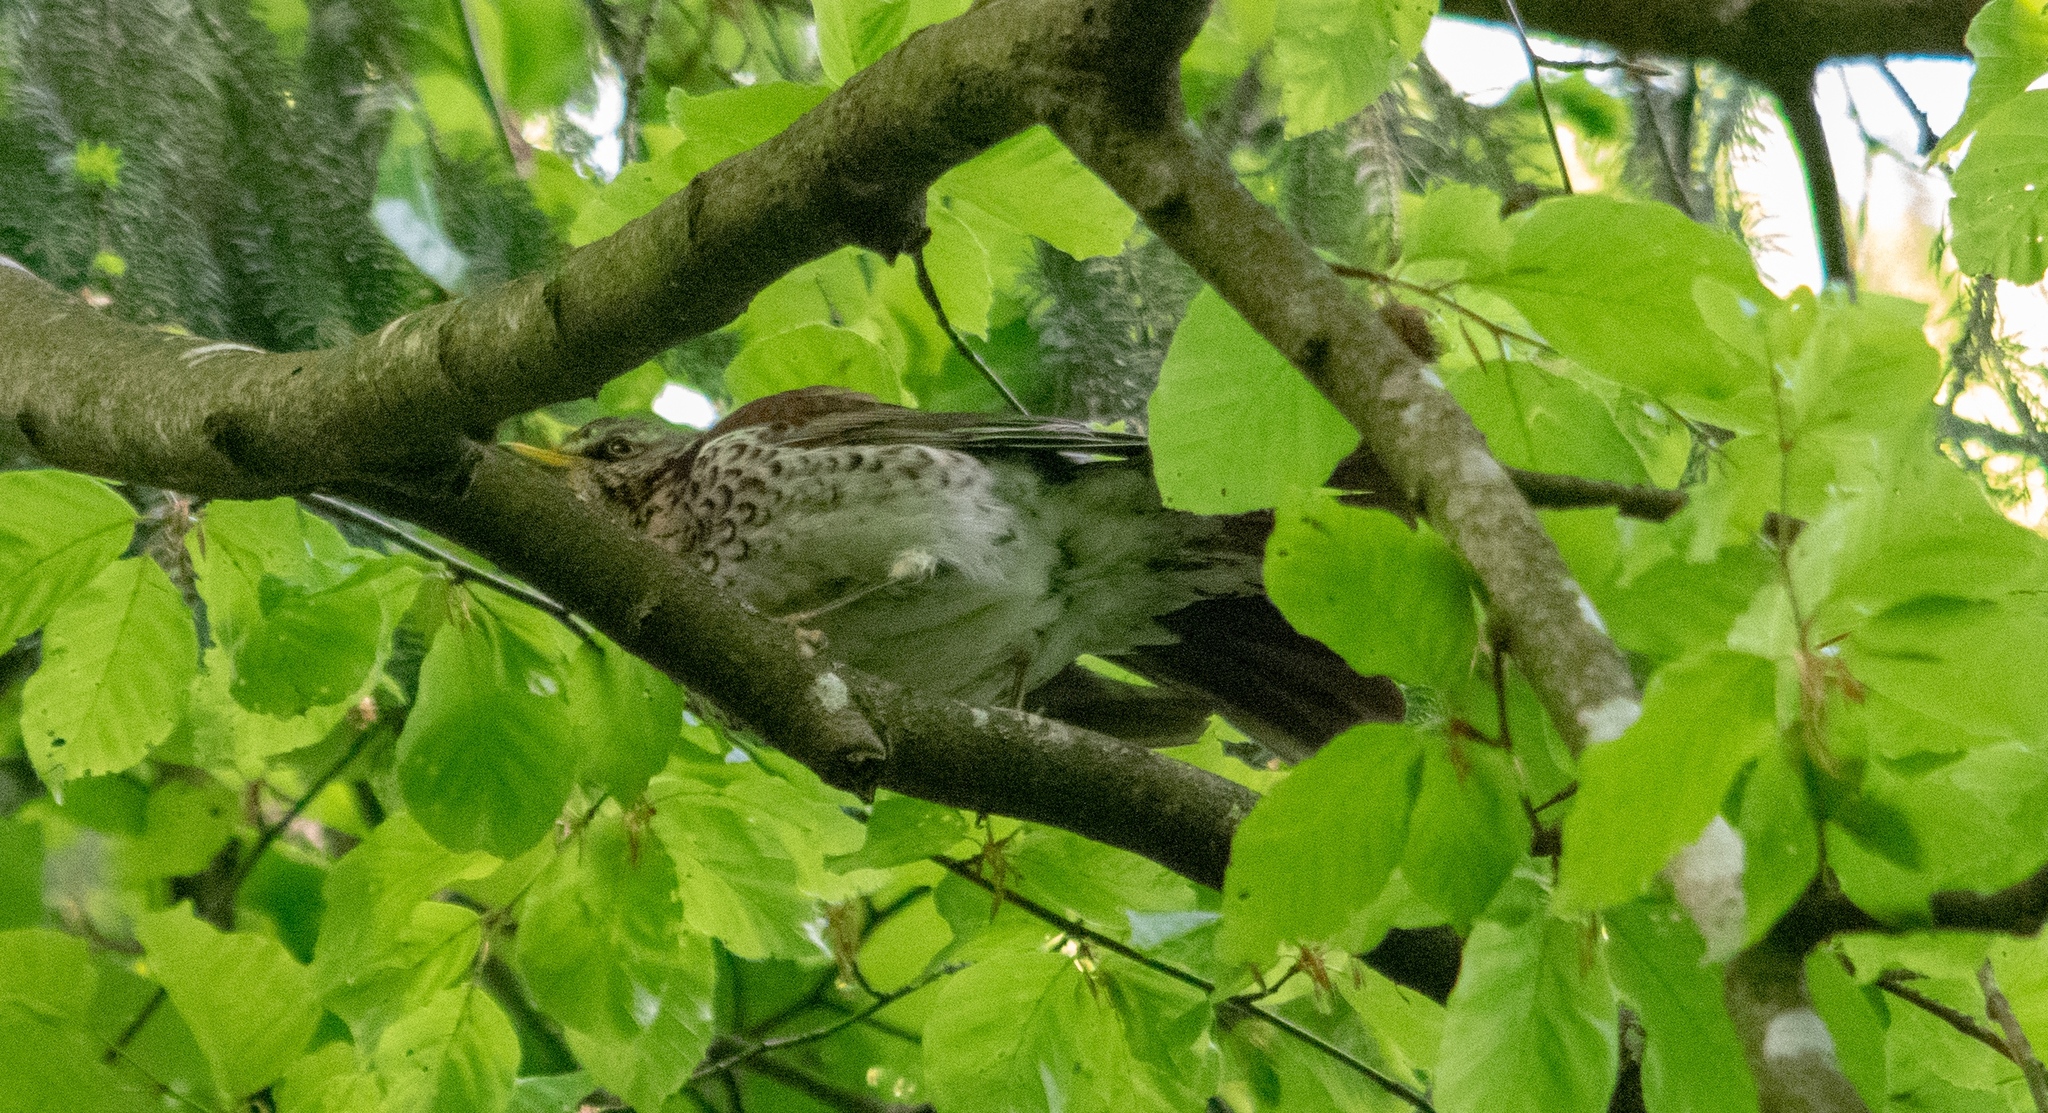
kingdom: Animalia
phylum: Chordata
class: Aves
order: Passeriformes
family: Turdidae
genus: Turdus
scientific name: Turdus pilaris
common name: Fieldfare
